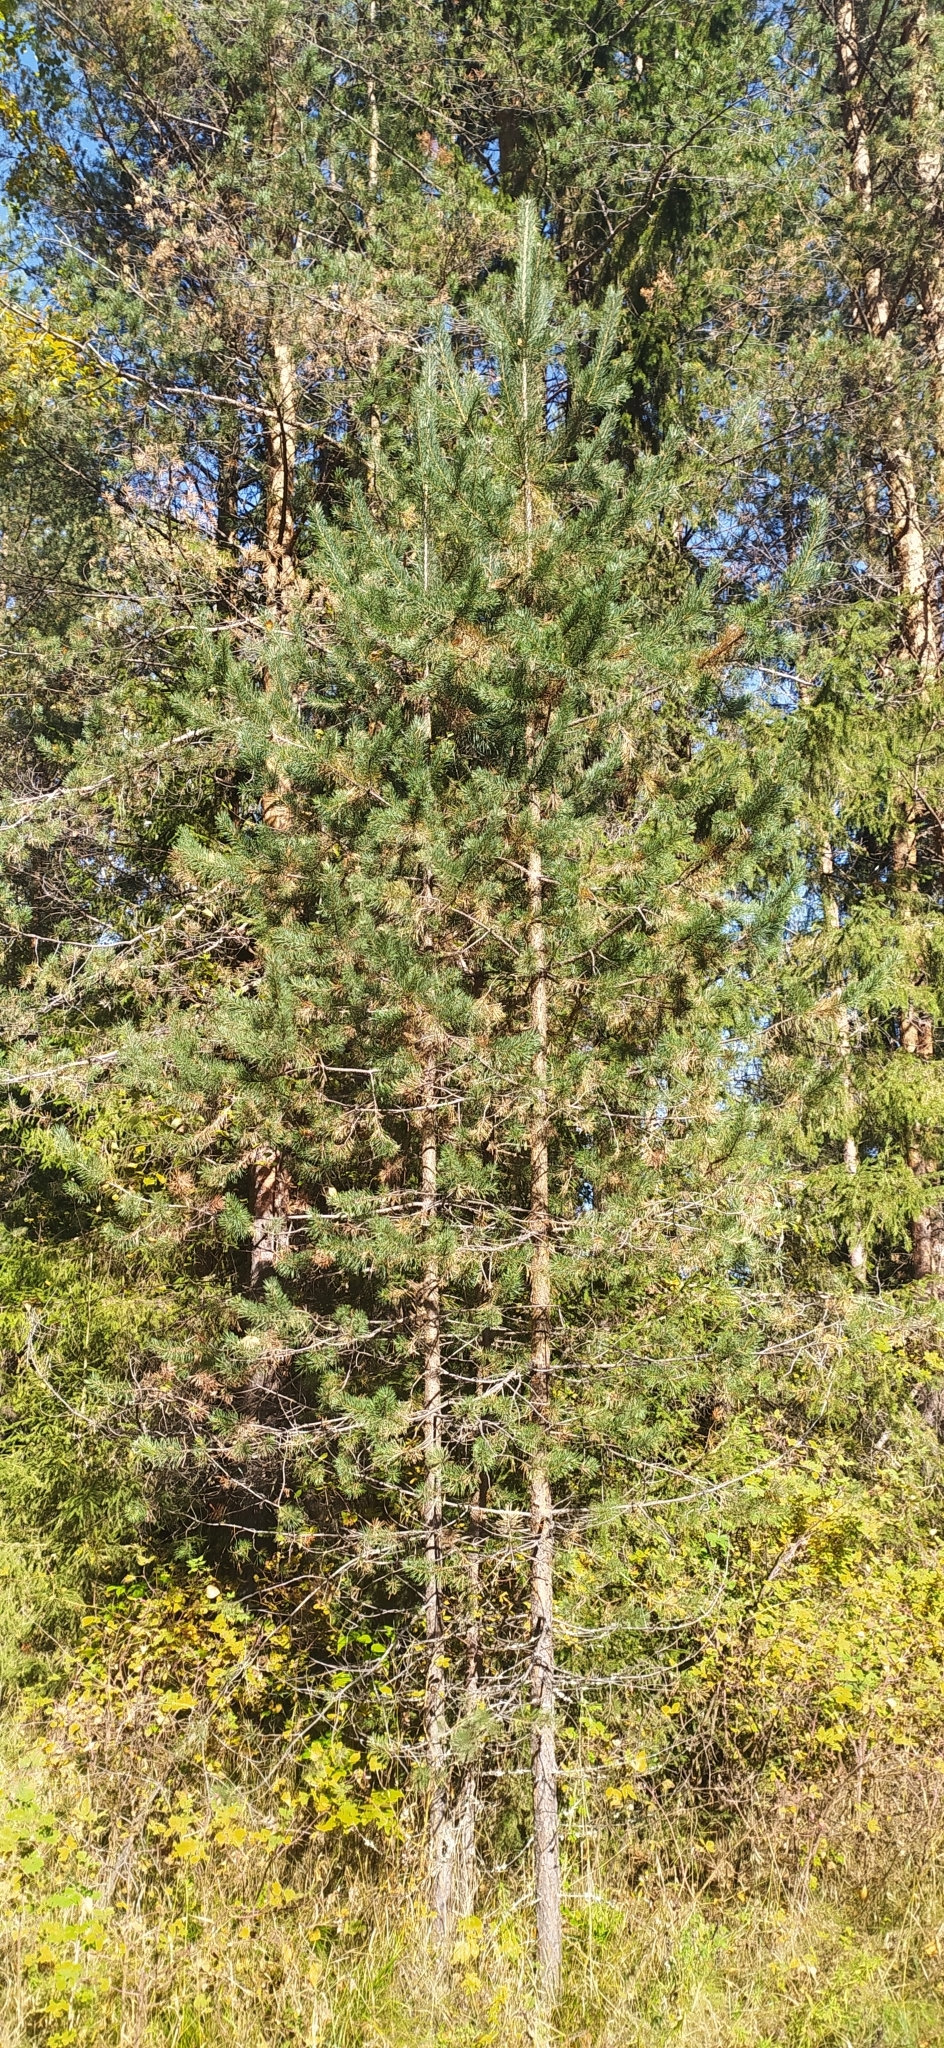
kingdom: Plantae
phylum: Tracheophyta
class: Pinopsida
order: Pinales
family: Pinaceae
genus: Pinus
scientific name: Pinus sylvestris
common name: Scots pine
